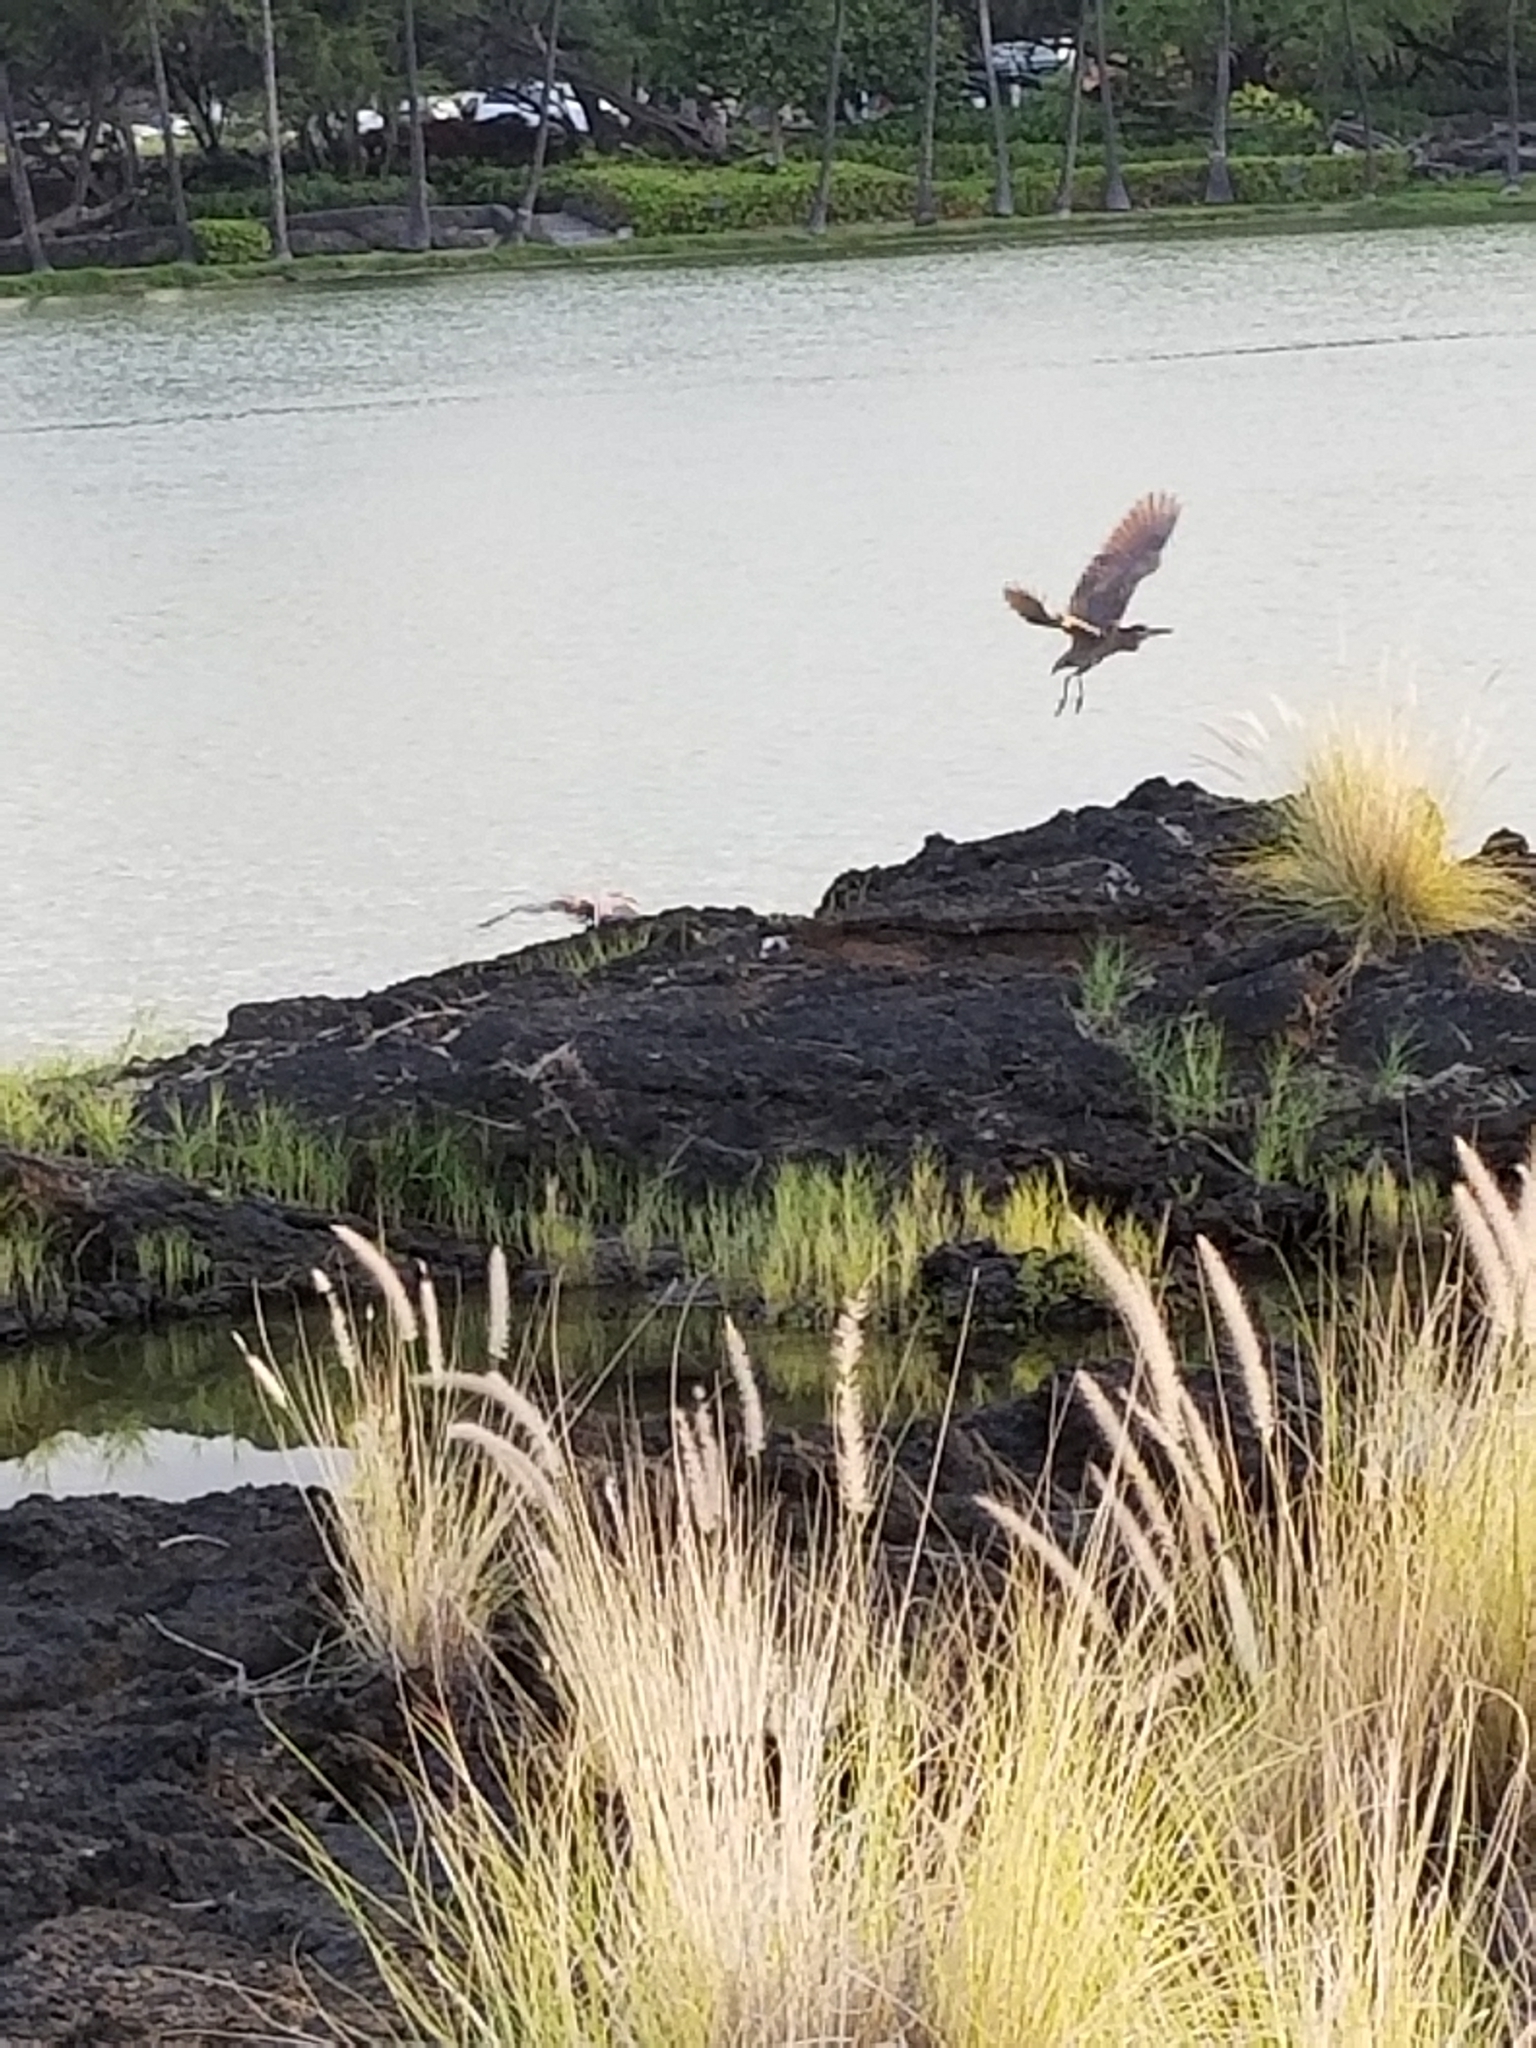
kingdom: Animalia
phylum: Chordata
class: Aves
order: Pelecaniformes
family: Ardeidae
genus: Nycticorax
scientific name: Nycticorax nycticorax
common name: Black-crowned night heron
